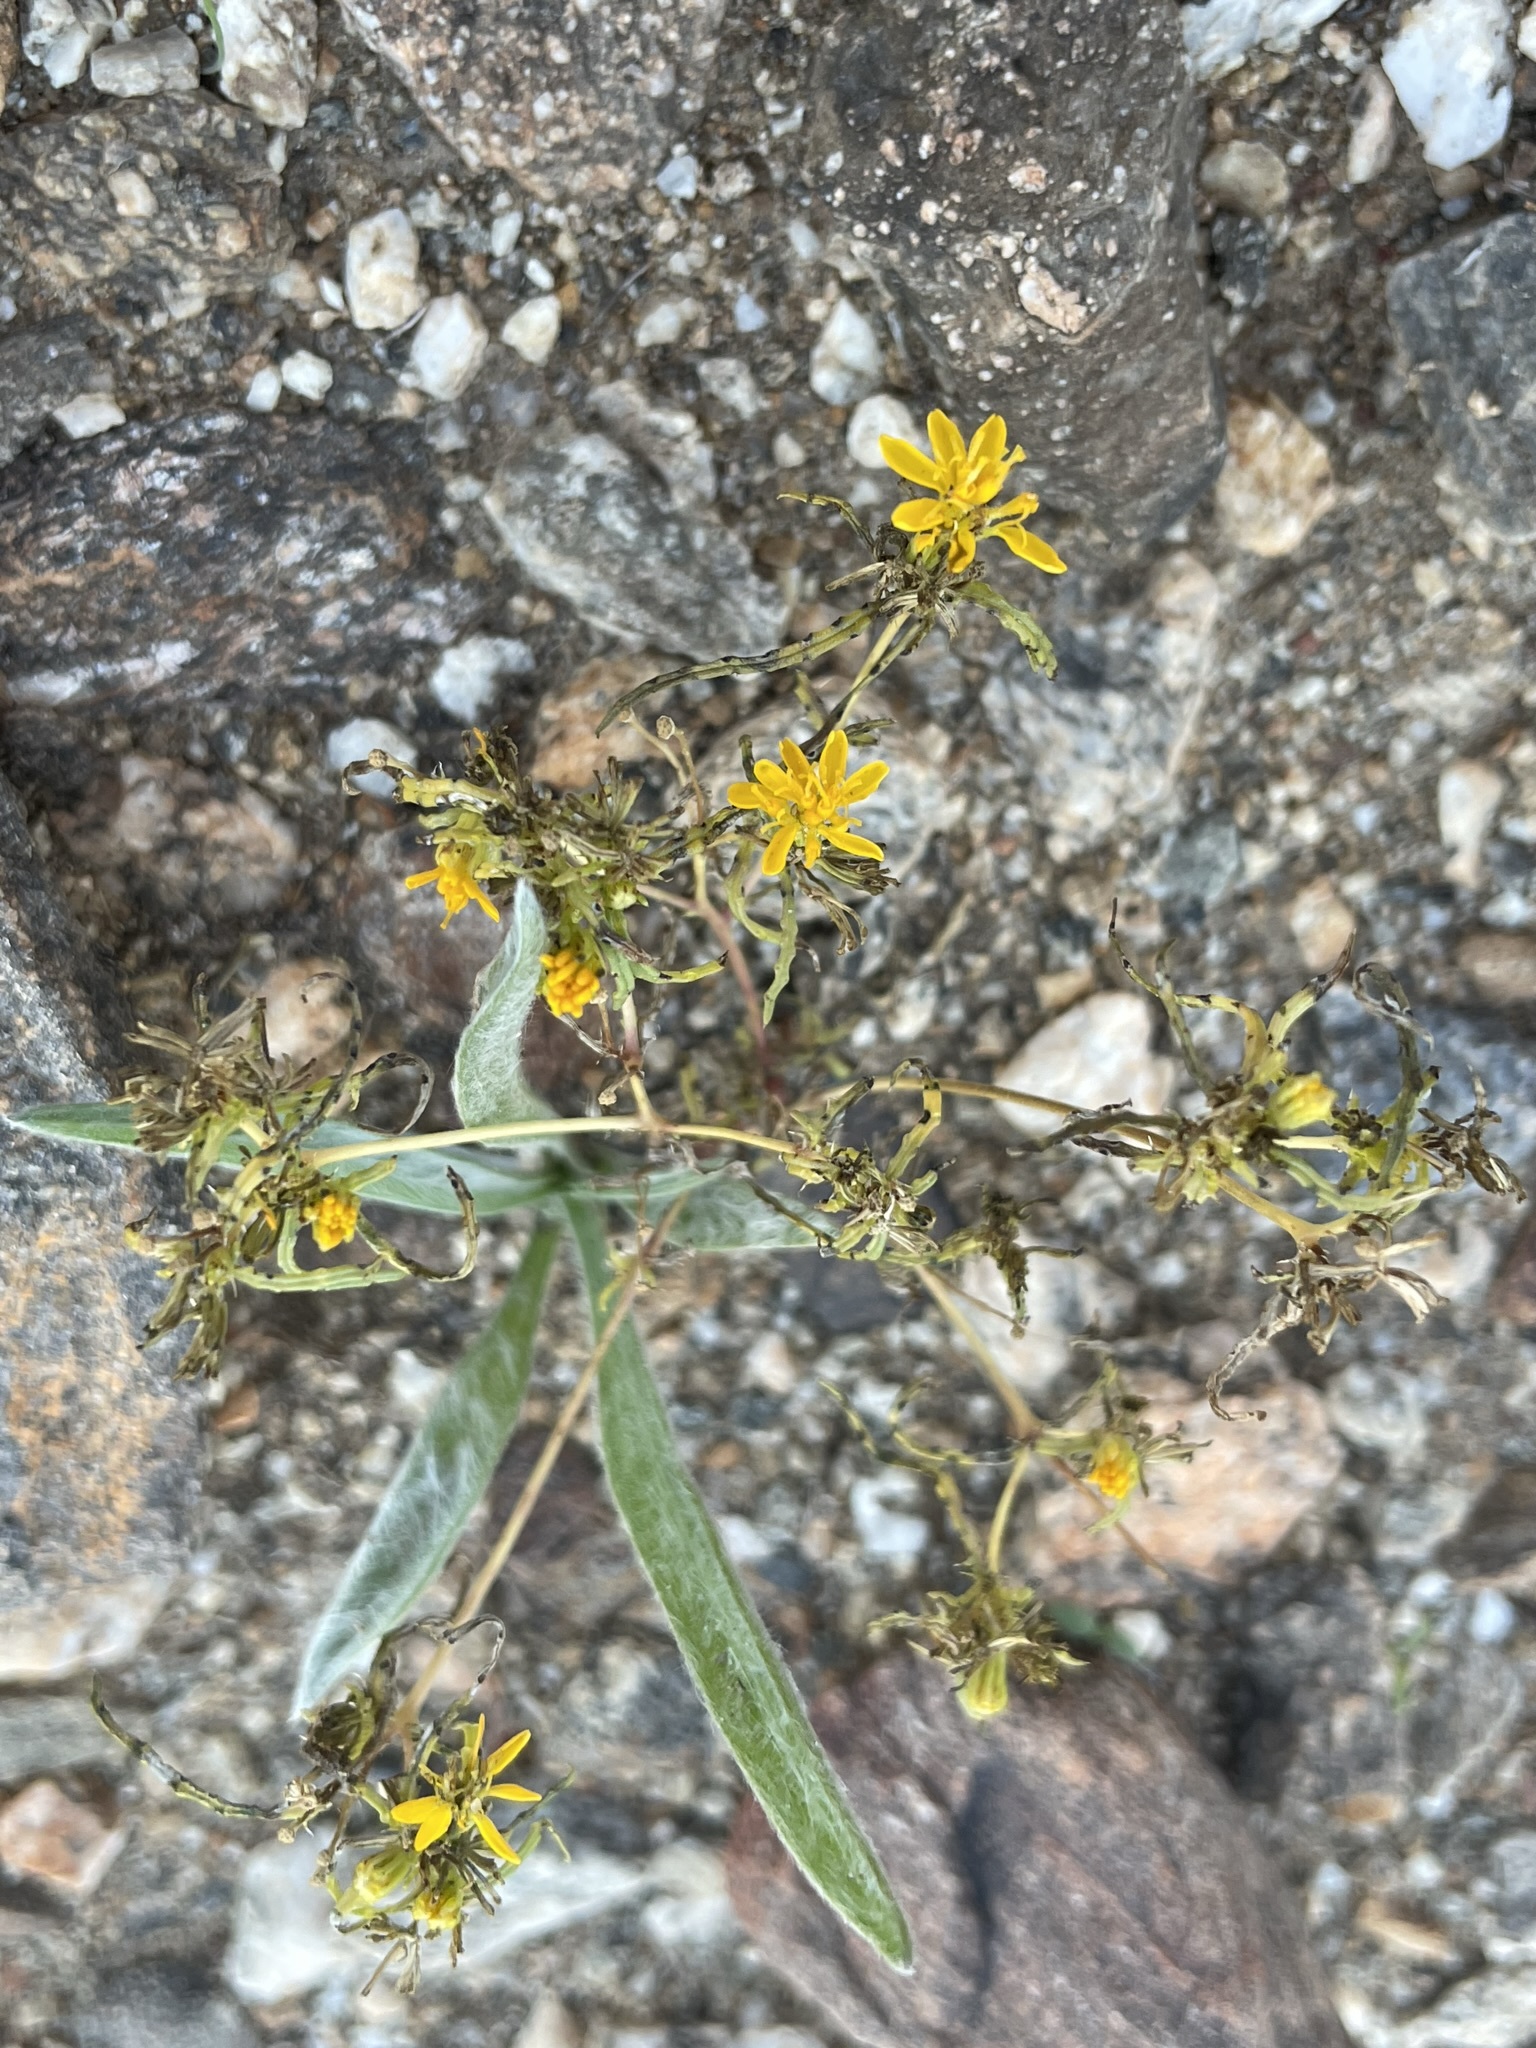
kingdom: Plantae
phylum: Tracheophyta
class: Magnoliopsida
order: Asterales
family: Asteraceae
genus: Pectis
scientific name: Pectis papposa
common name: Many-bristle chinchweed
